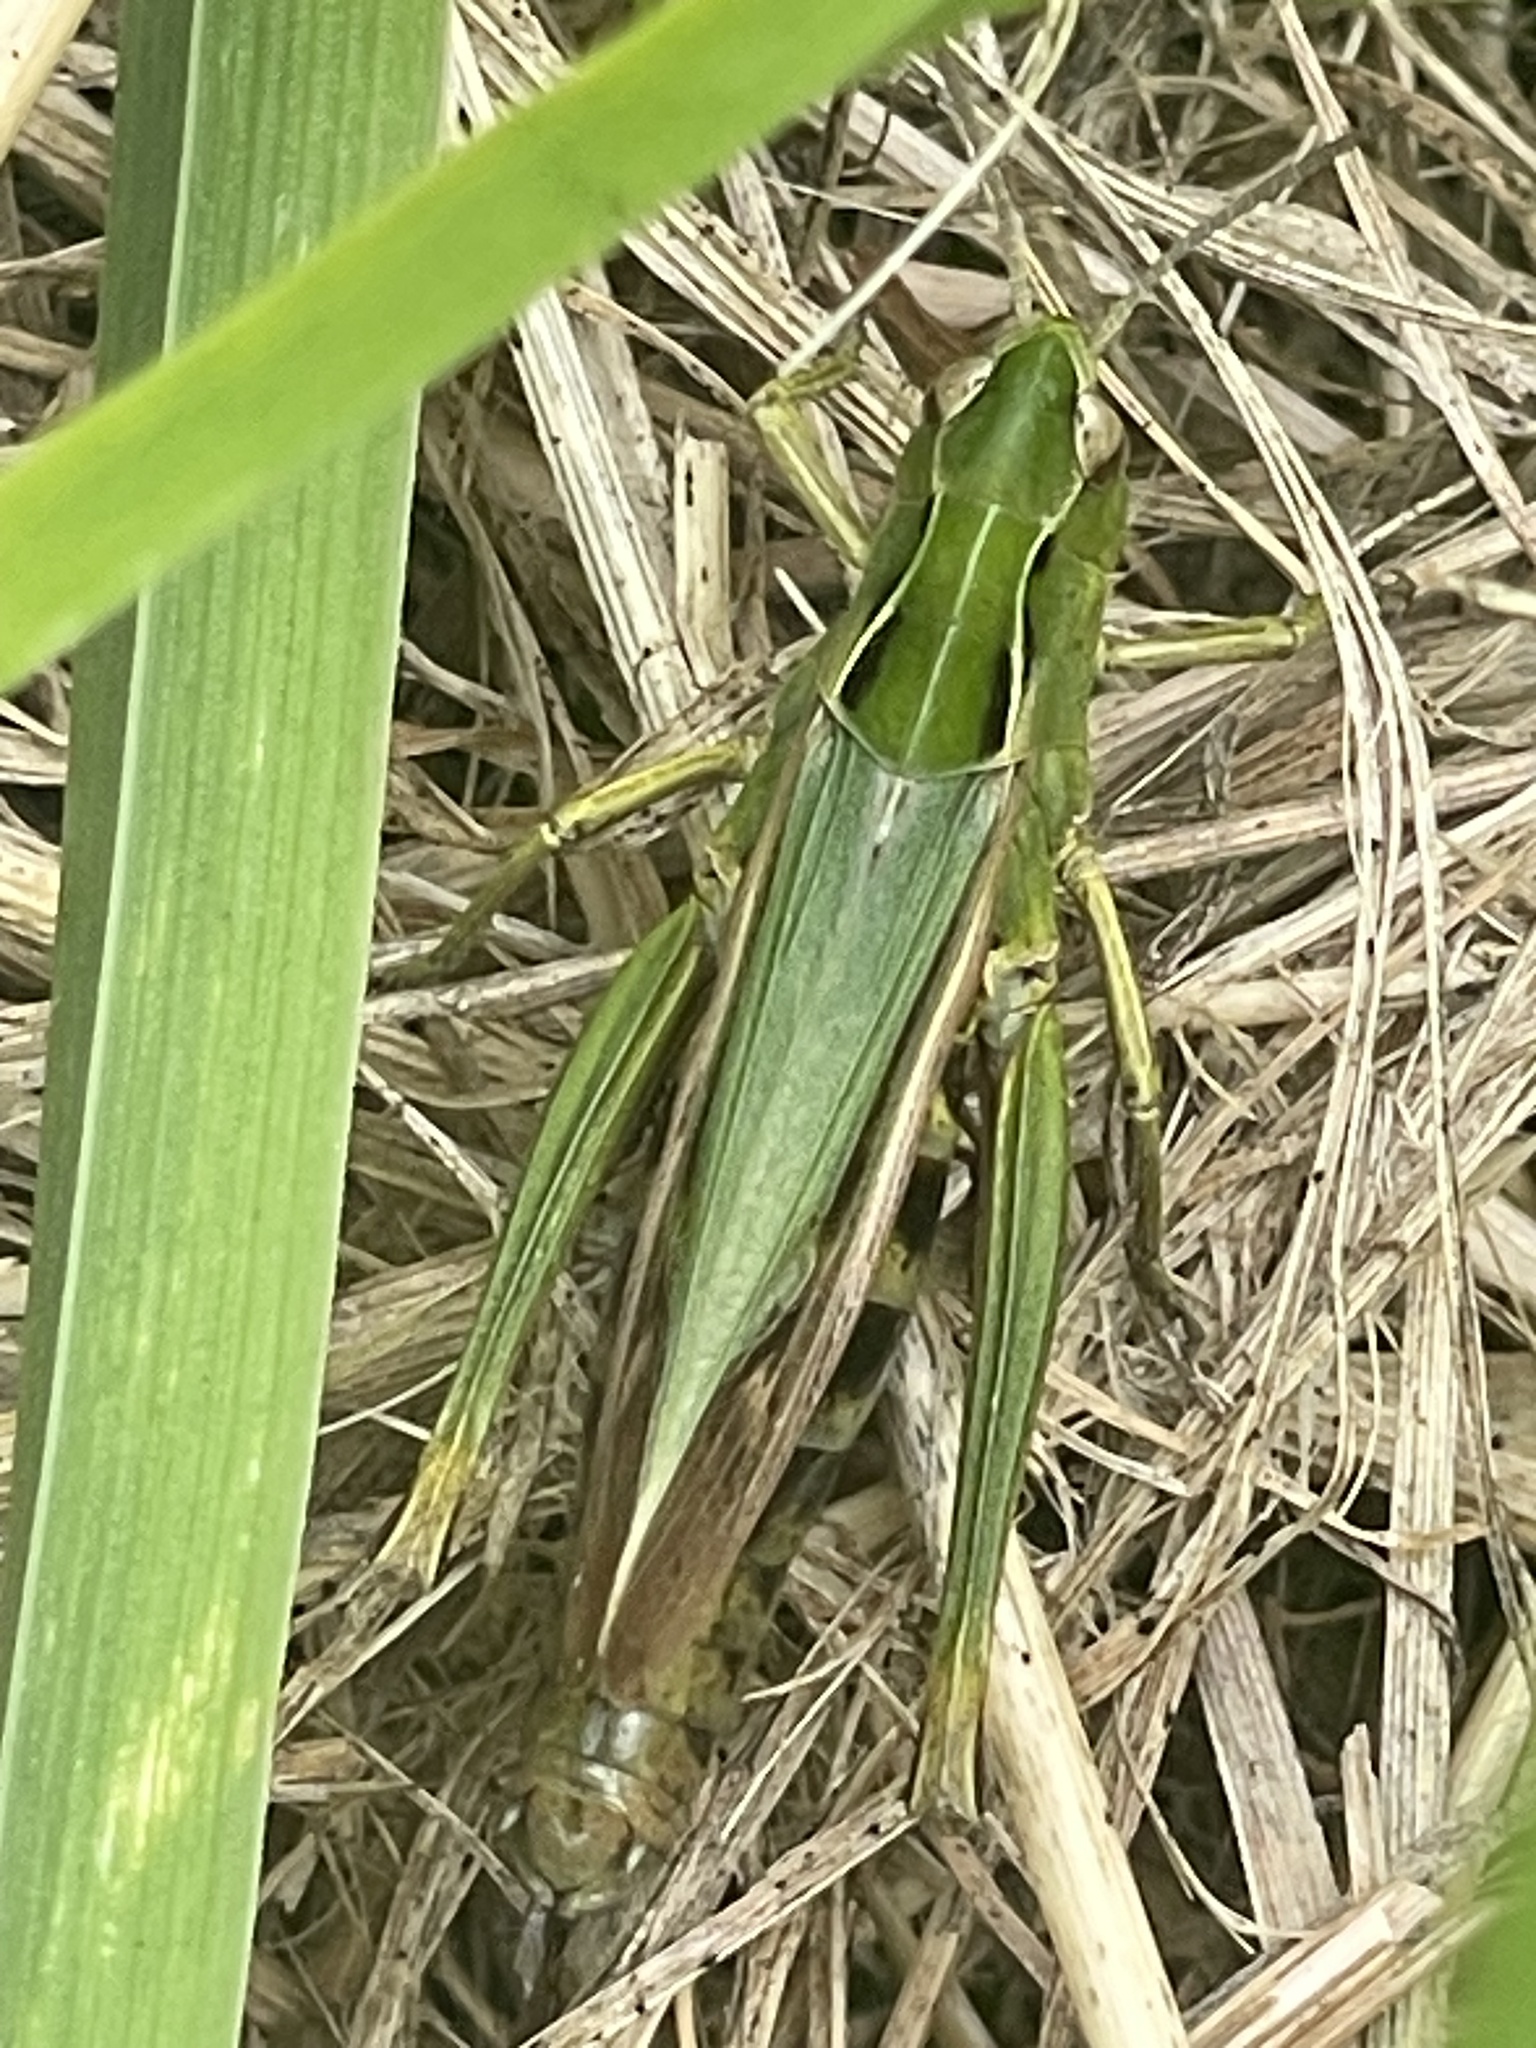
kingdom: Animalia
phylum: Arthropoda
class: Insecta
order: Orthoptera
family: Acrididae
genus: Omocestus
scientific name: Omocestus viridulus
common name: Common green grasshopper
